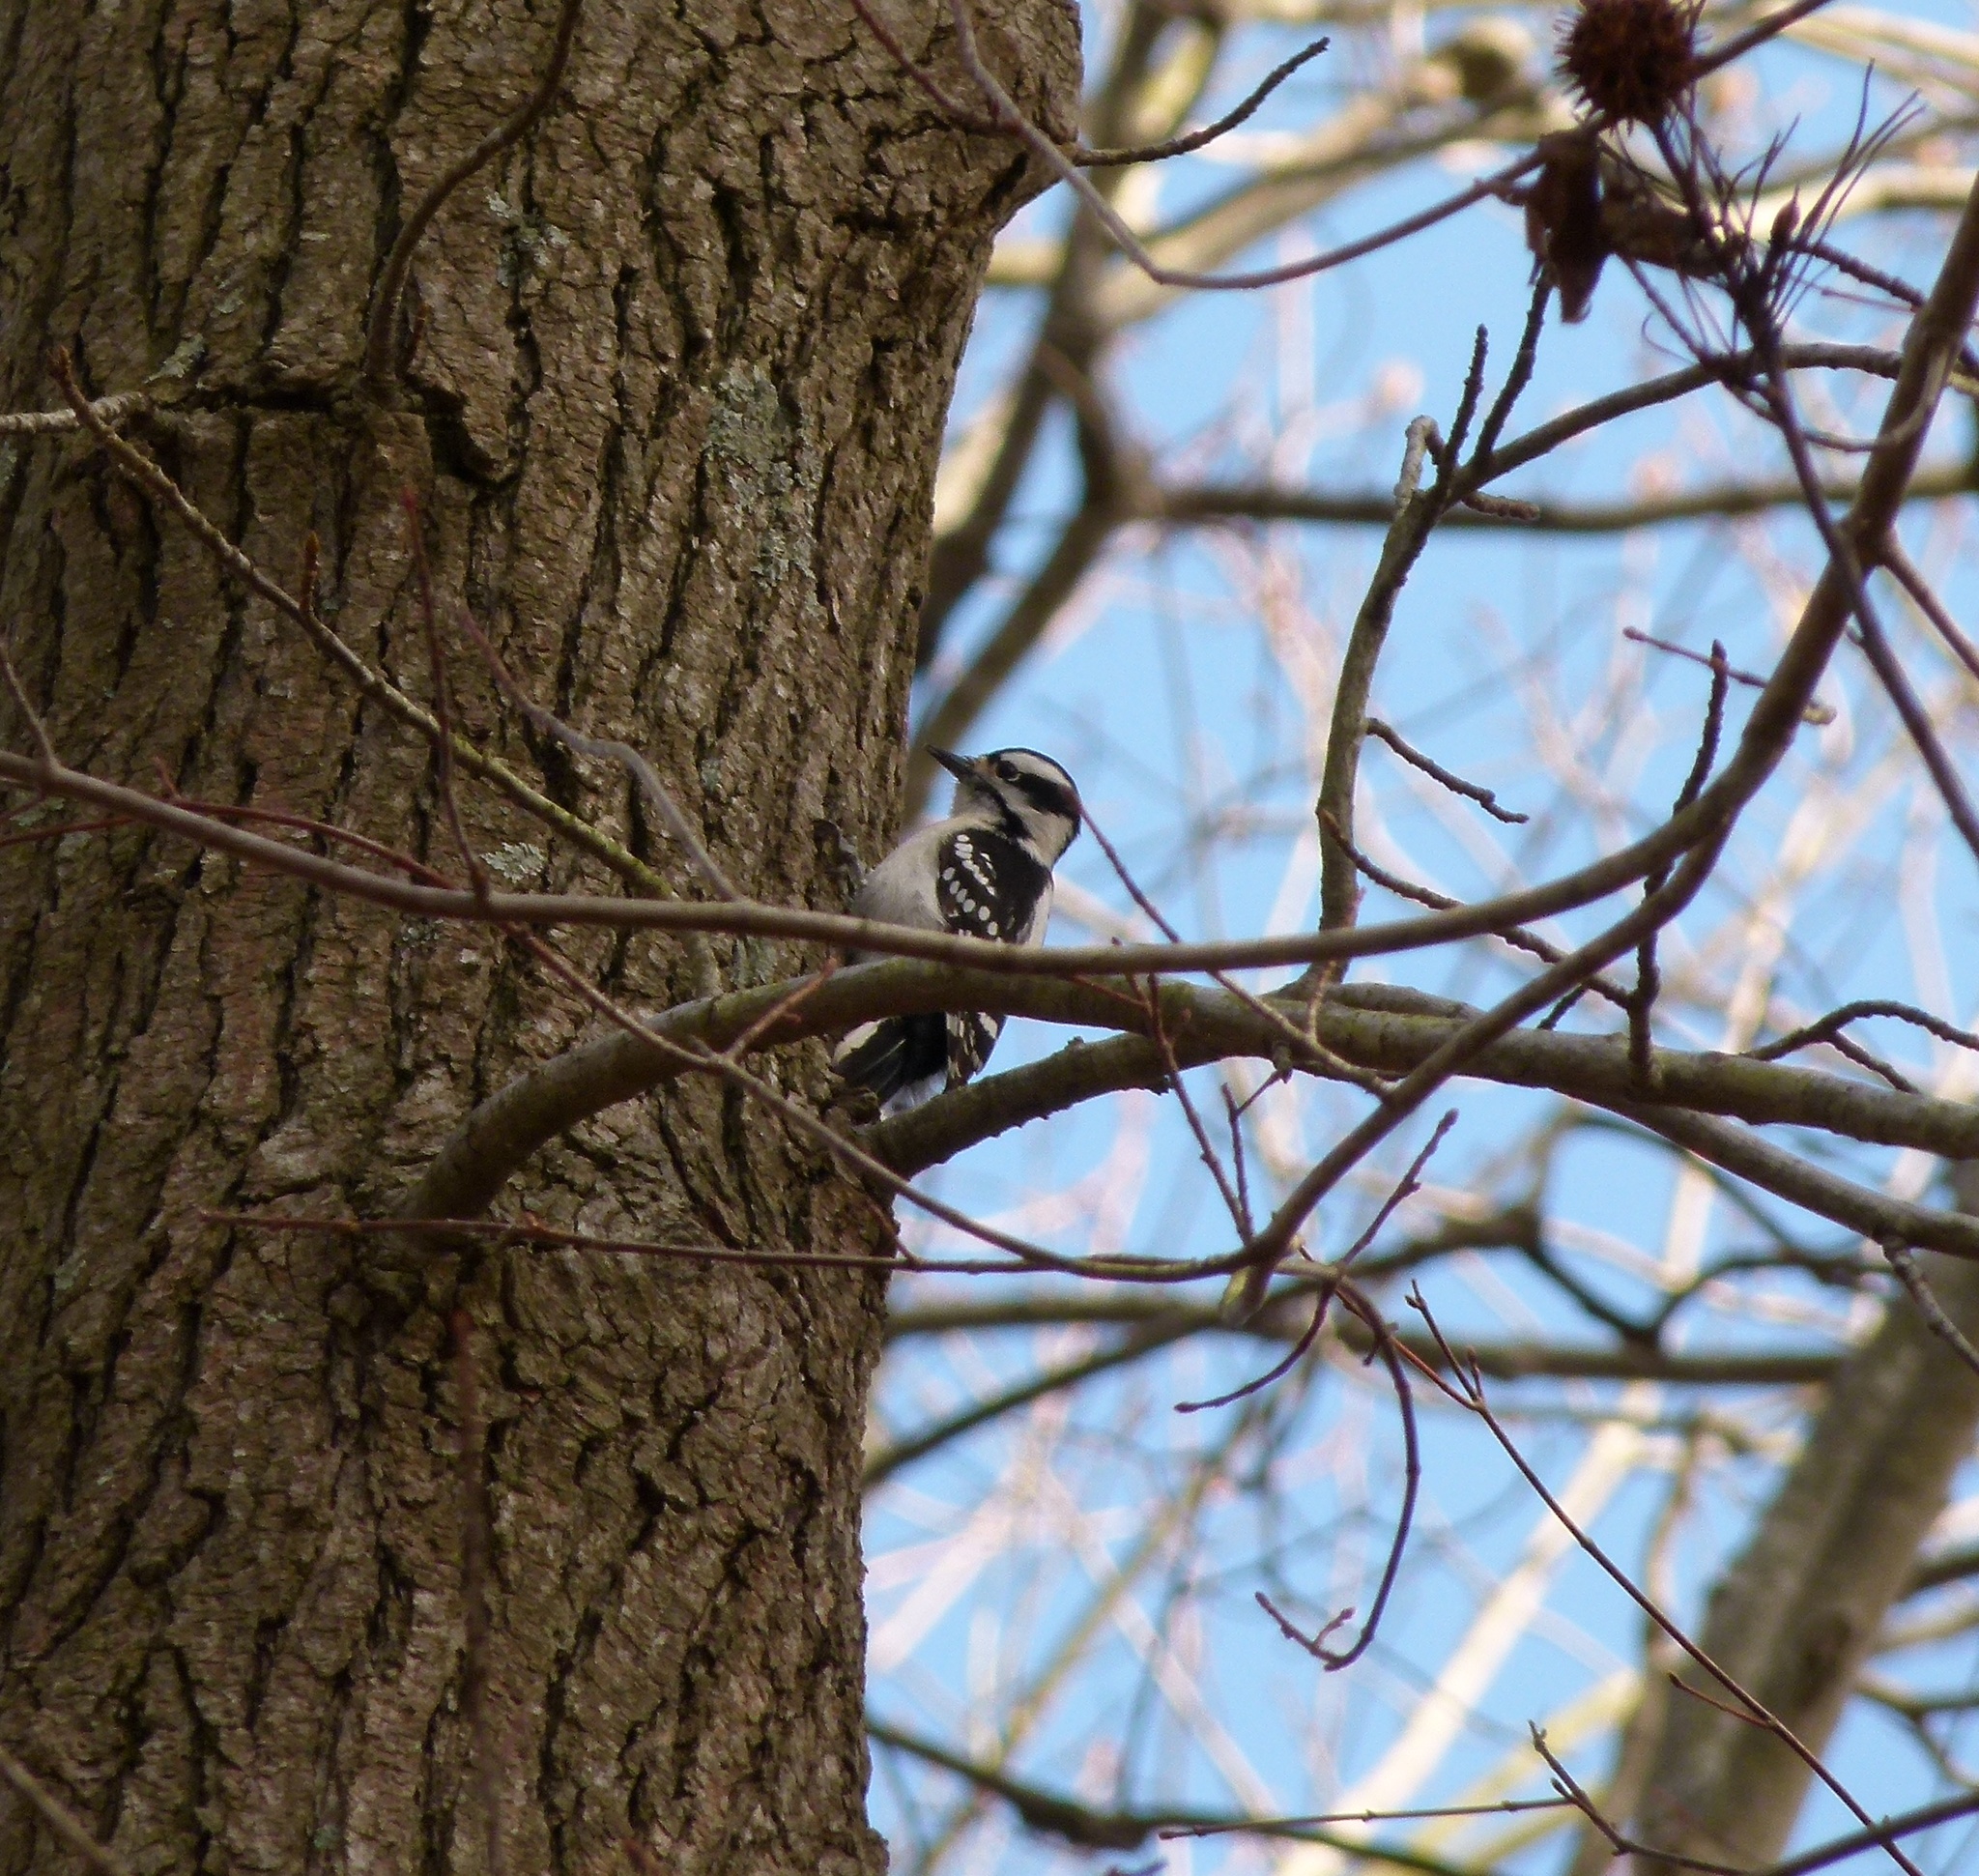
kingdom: Animalia
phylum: Chordata
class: Aves
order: Piciformes
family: Picidae
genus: Dryobates
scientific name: Dryobates pubescens
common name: Downy woodpecker
